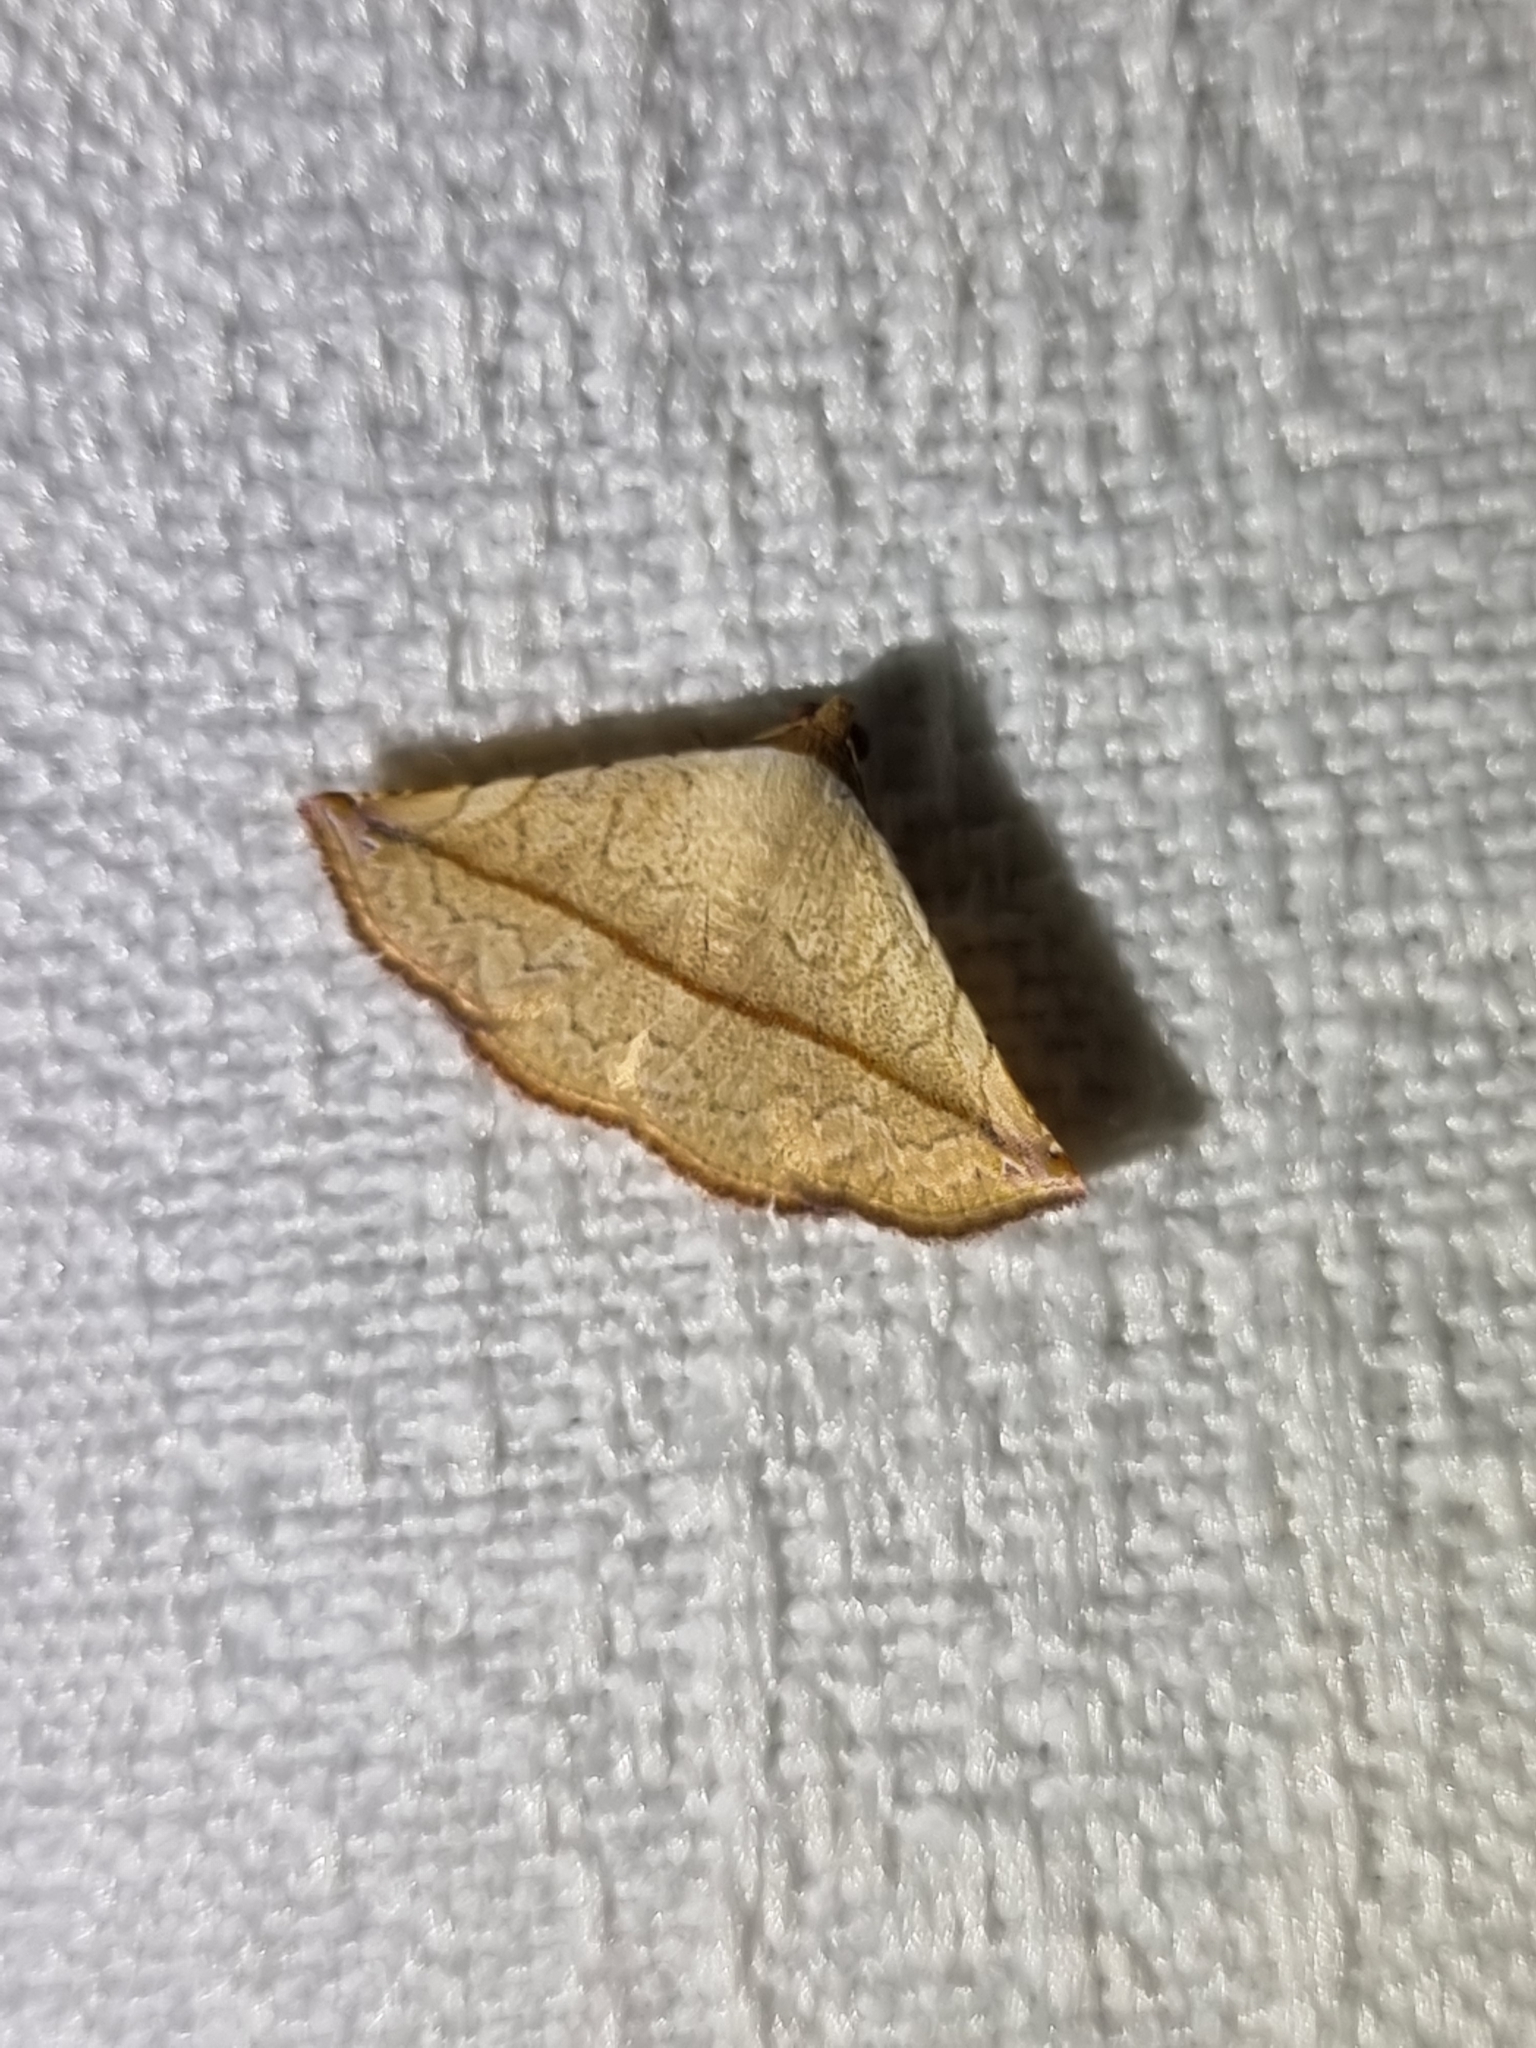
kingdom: Animalia
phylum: Arthropoda
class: Insecta
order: Lepidoptera
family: Noctuidae
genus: Eublemma
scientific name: Eublemma perversicolor
